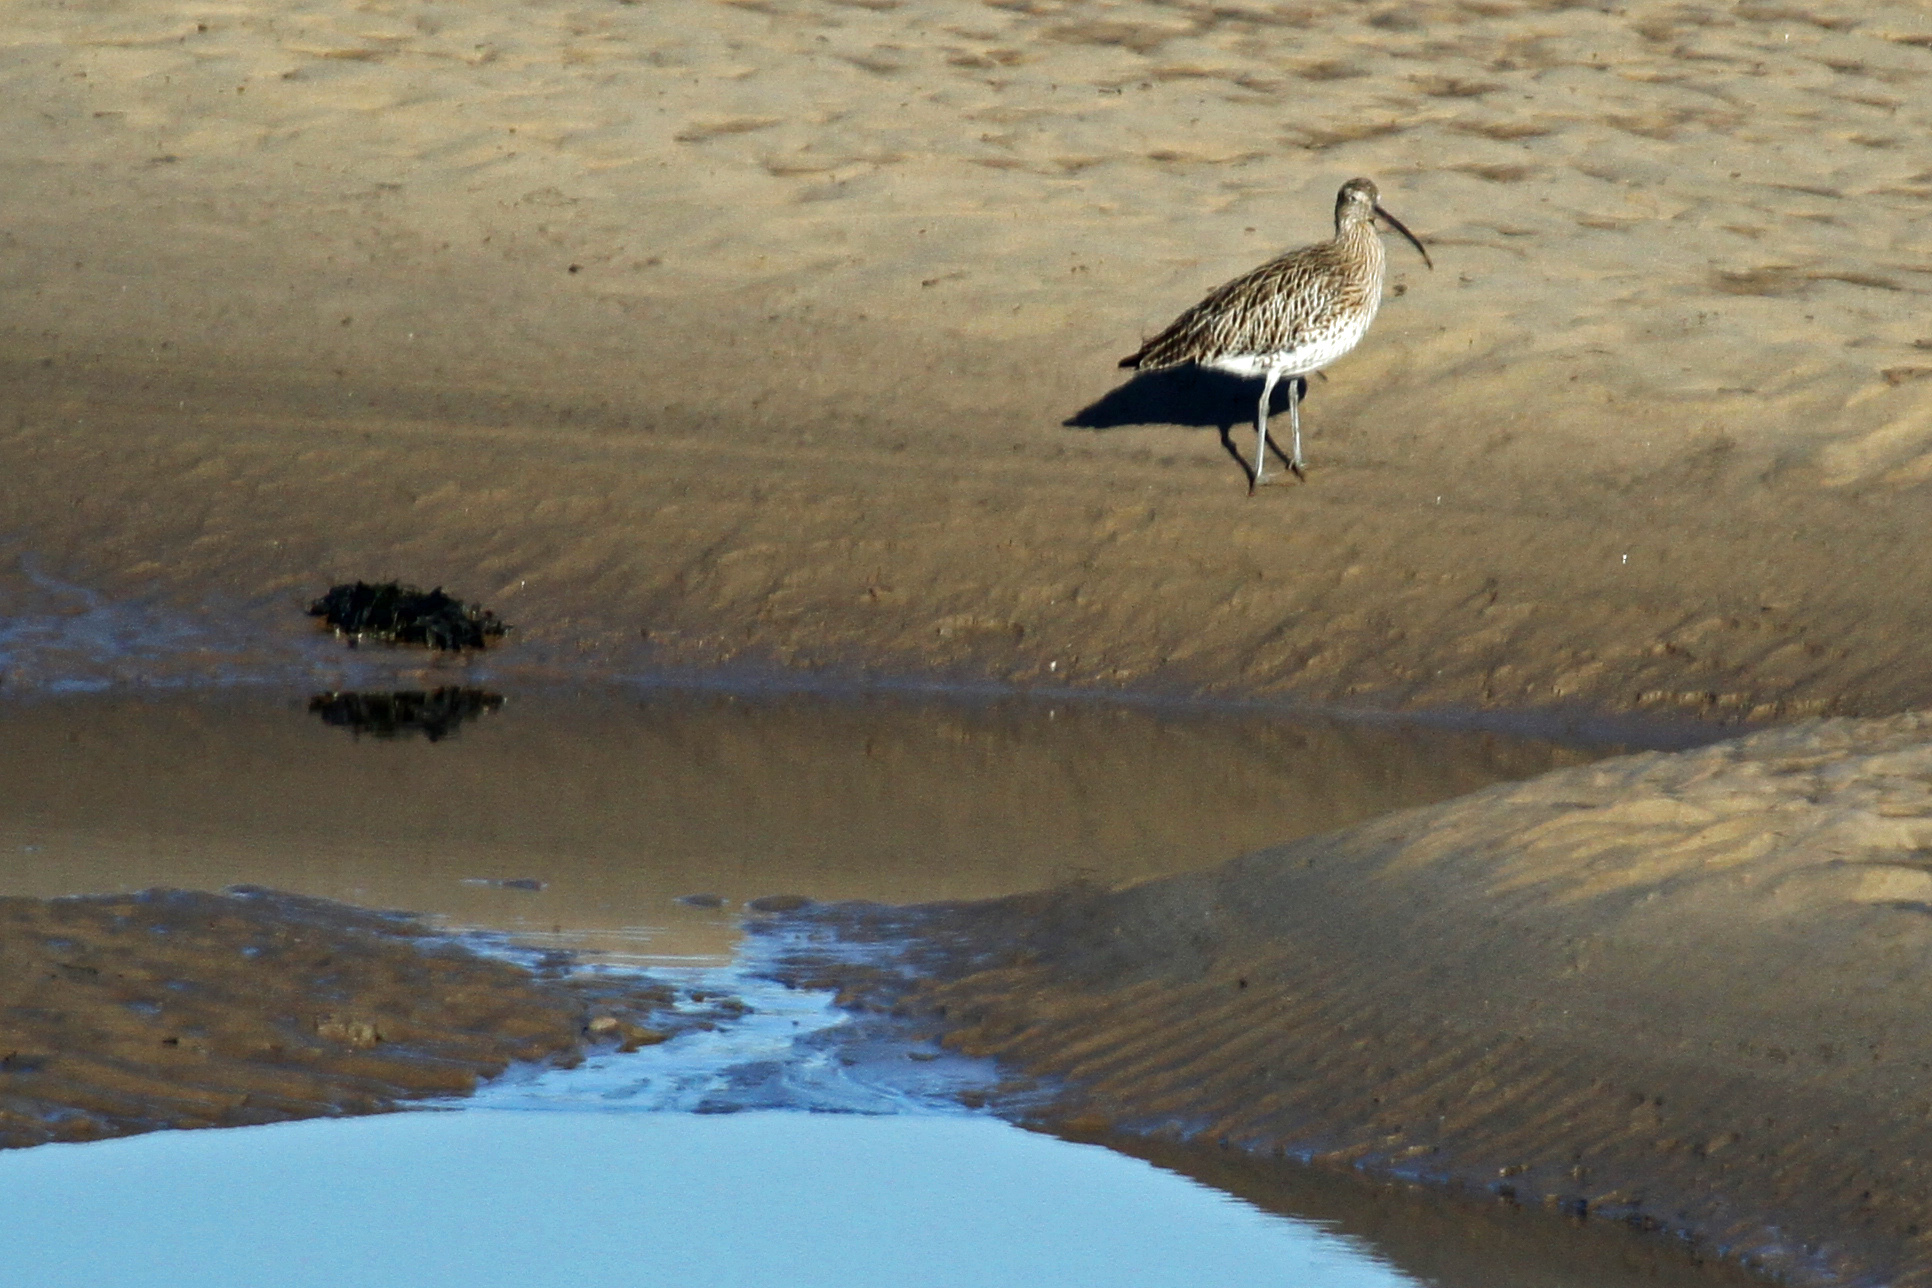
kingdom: Animalia
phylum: Chordata
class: Aves
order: Charadriiformes
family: Scolopacidae
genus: Numenius
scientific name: Numenius arquata
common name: Eurasian curlew
